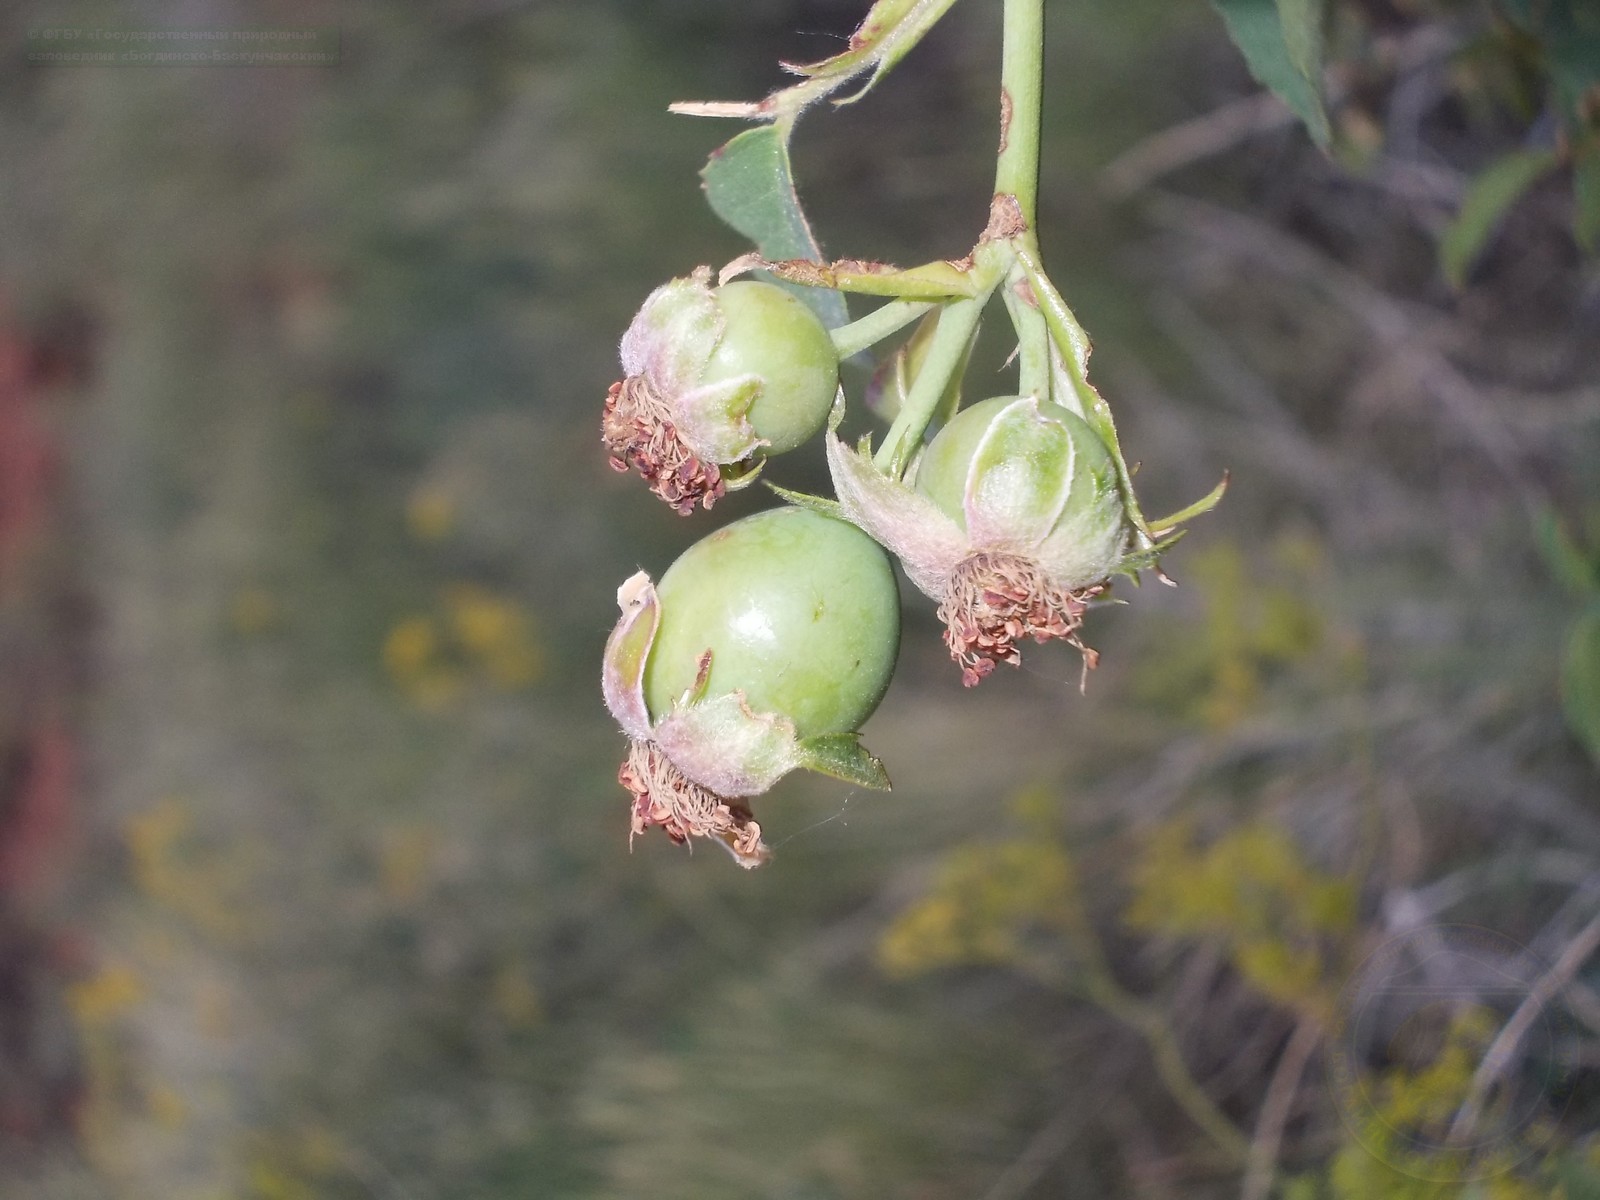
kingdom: Plantae
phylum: Tracheophyta
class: Magnoliopsida
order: Rosales
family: Rosaceae
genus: Rosa
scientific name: Rosa
